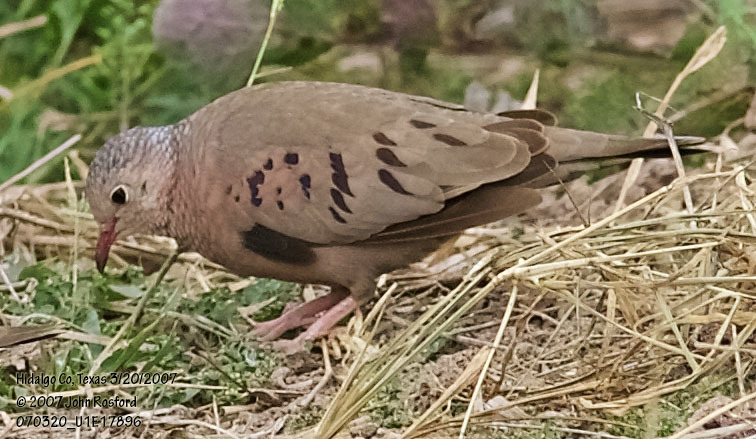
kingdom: Animalia
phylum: Chordata
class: Aves
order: Columbiformes
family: Columbidae
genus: Columbina
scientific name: Columbina passerina
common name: Common ground-dove
